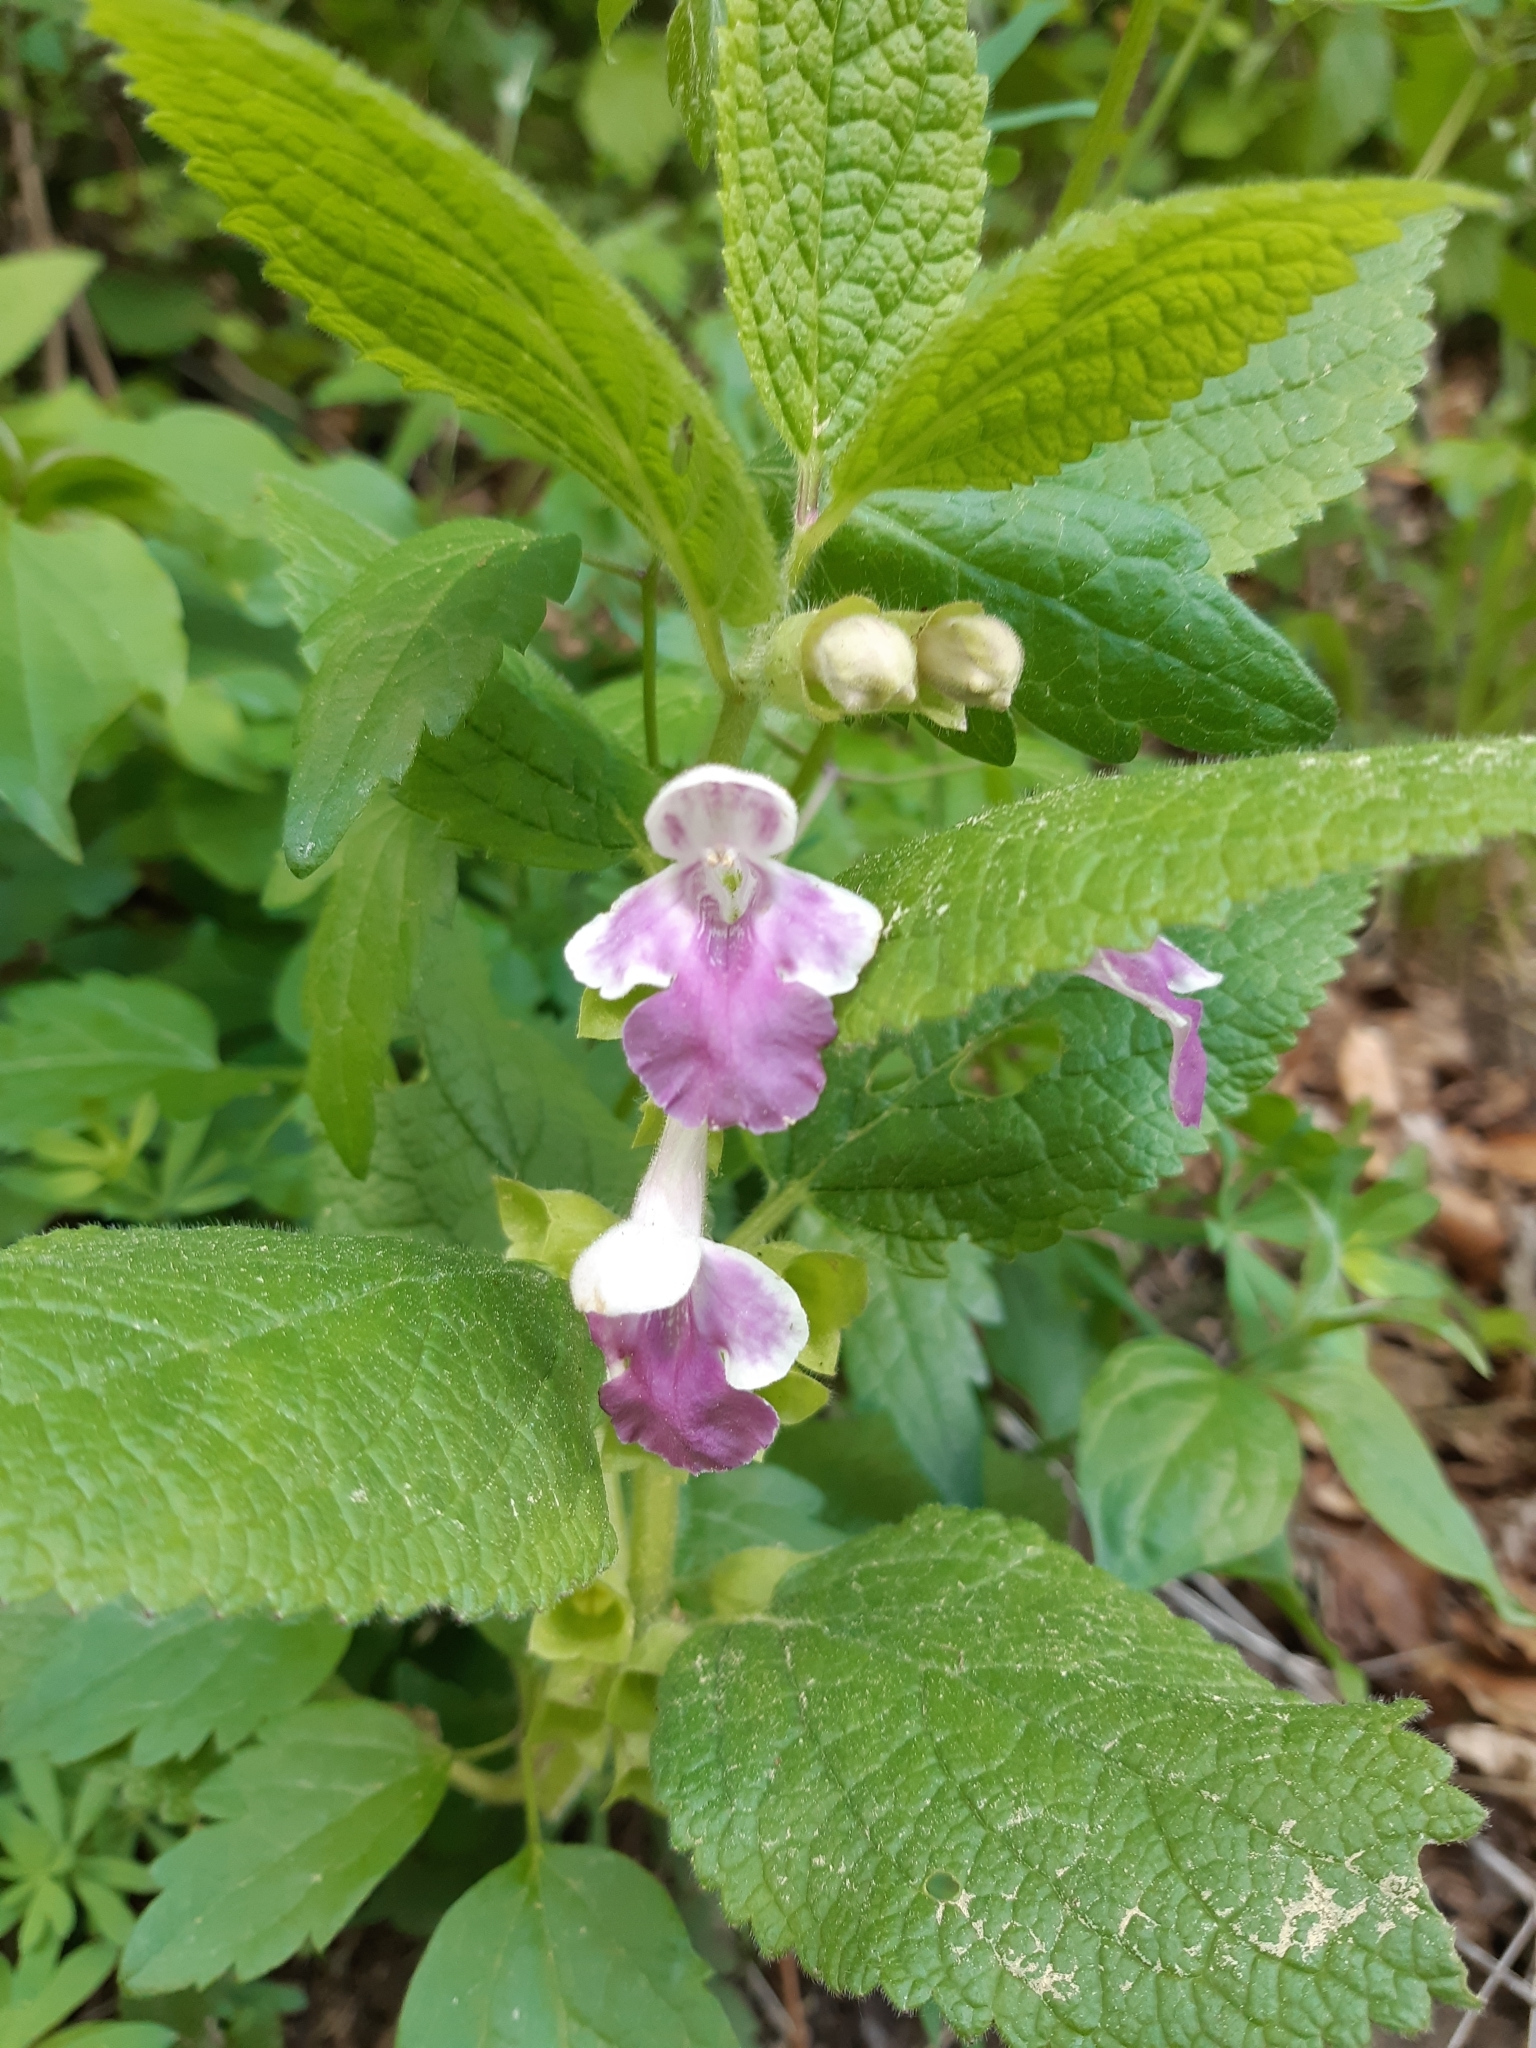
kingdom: Plantae
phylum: Tracheophyta
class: Magnoliopsida
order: Lamiales
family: Lamiaceae
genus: Melittis
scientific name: Melittis melissophyllum
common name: Bastard balm
